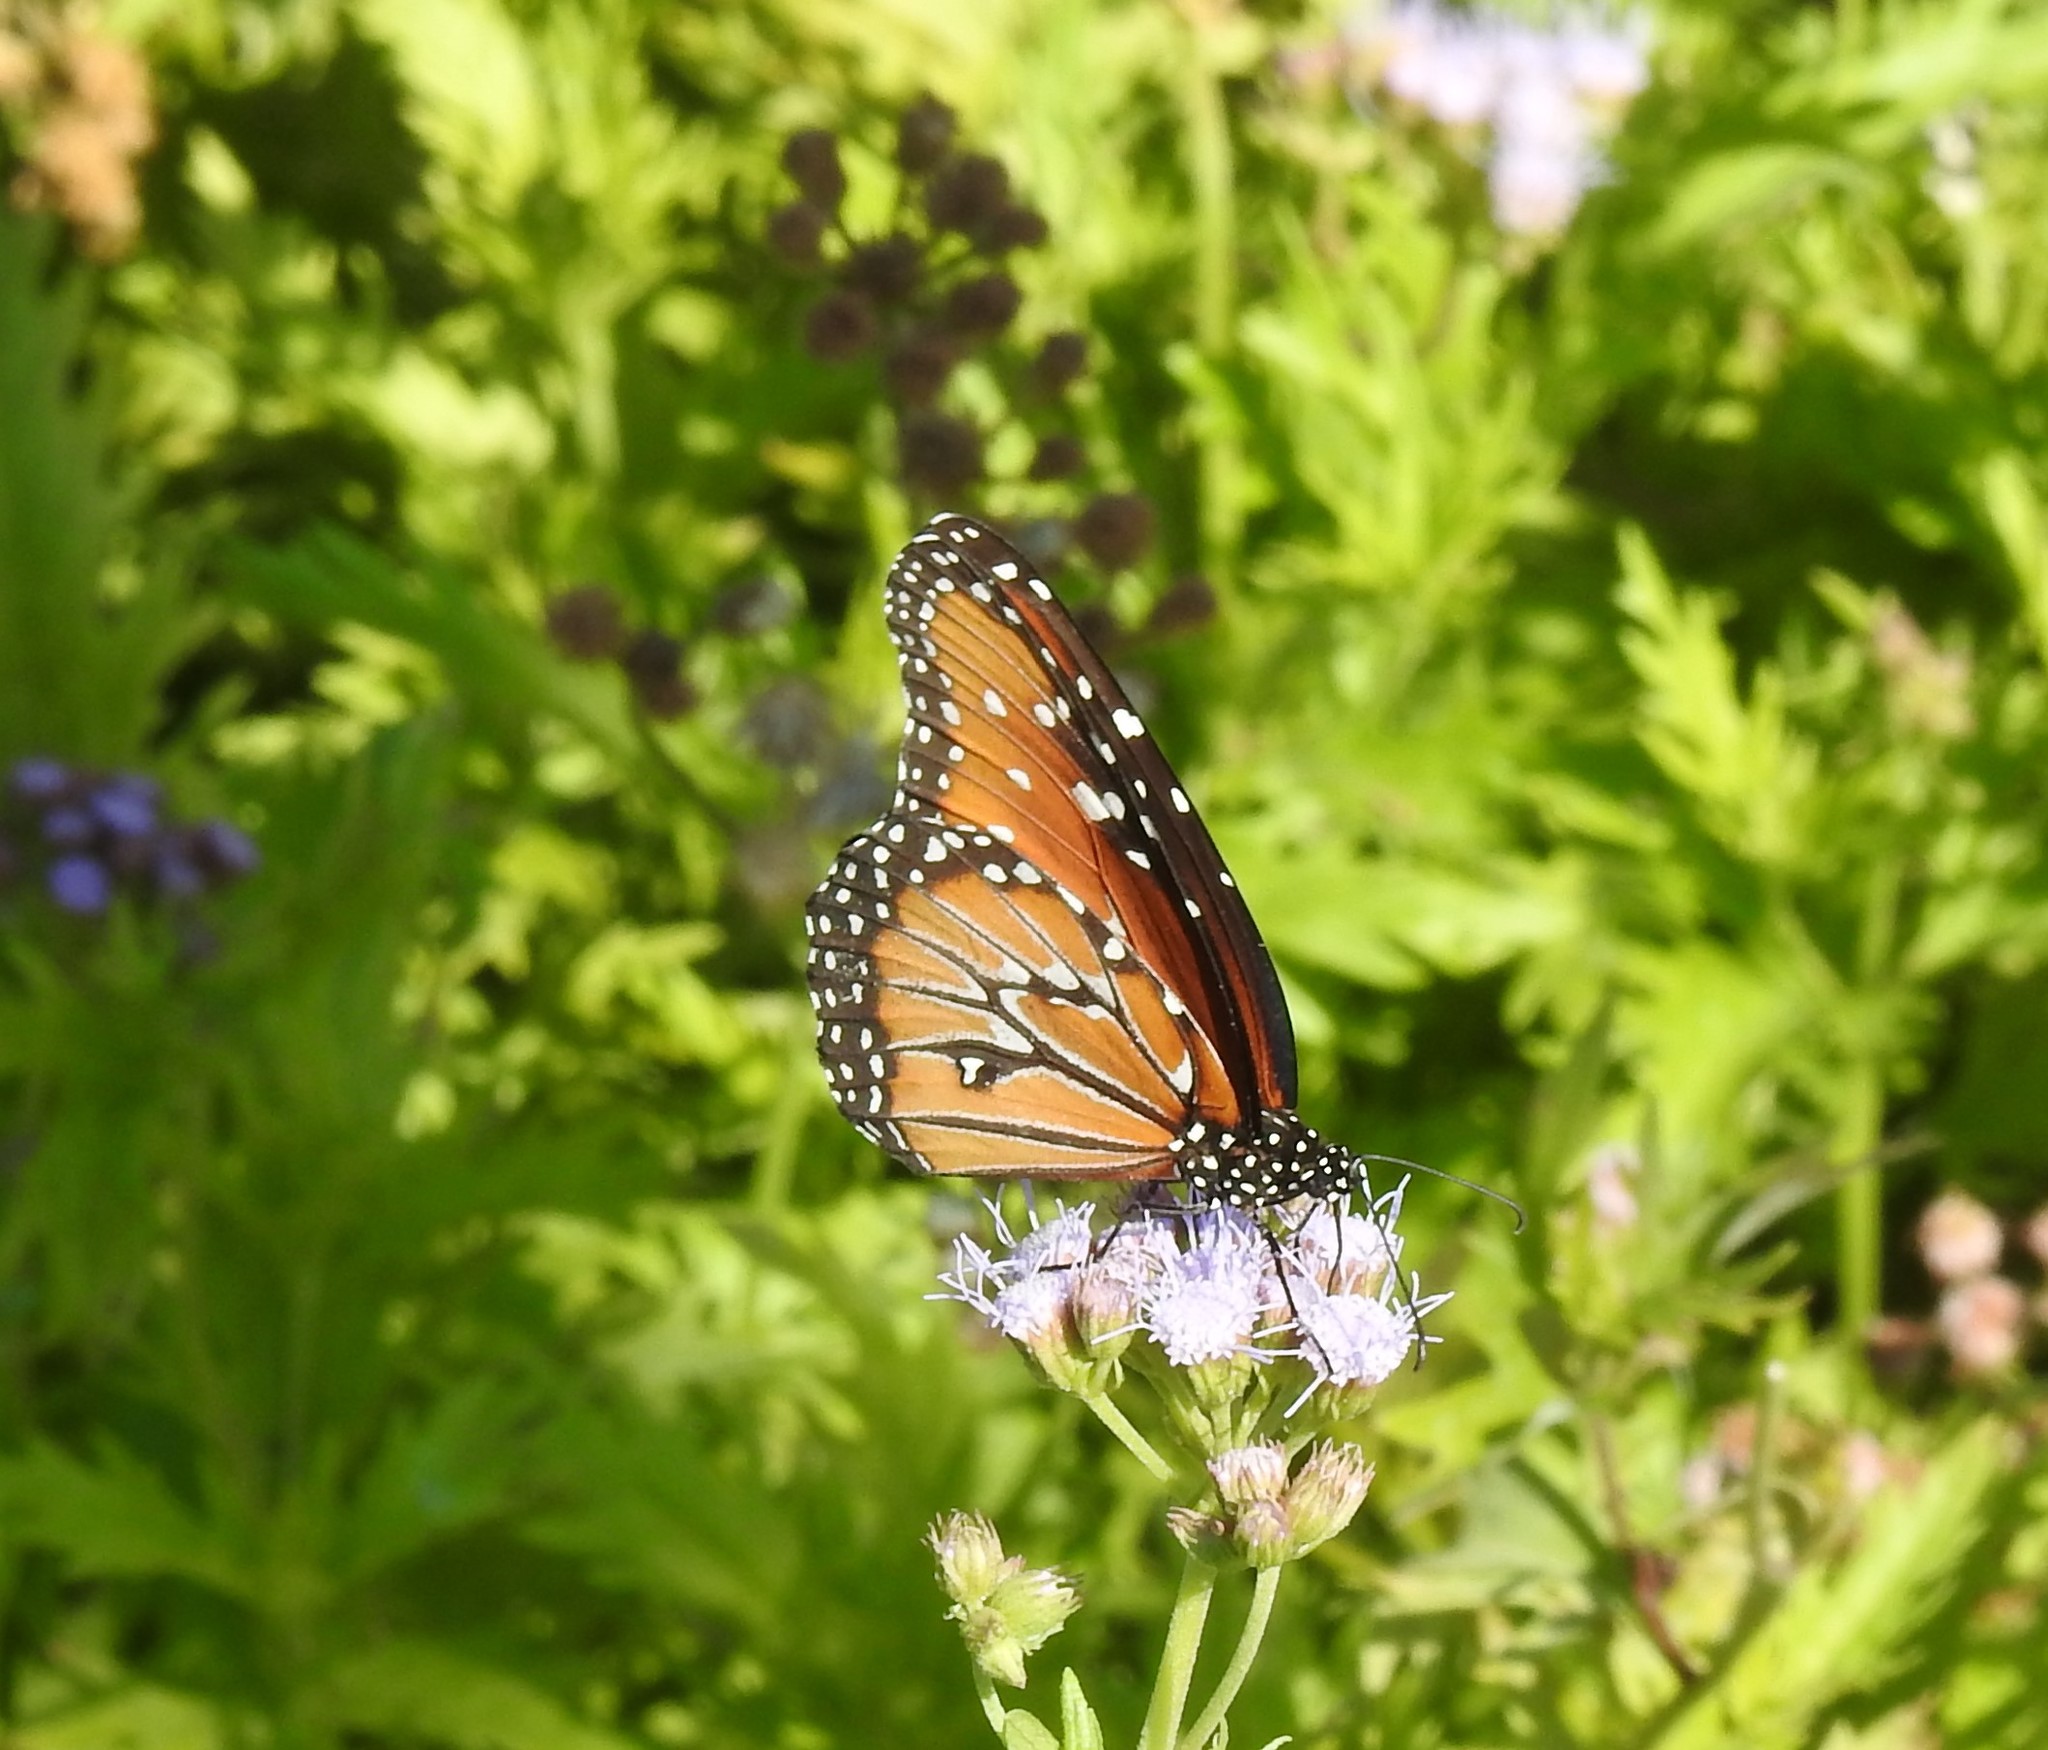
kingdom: Animalia
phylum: Arthropoda
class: Insecta
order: Lepidoptera
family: Nymphalidae
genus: Danaus
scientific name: Danaus gilippus
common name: Queen
